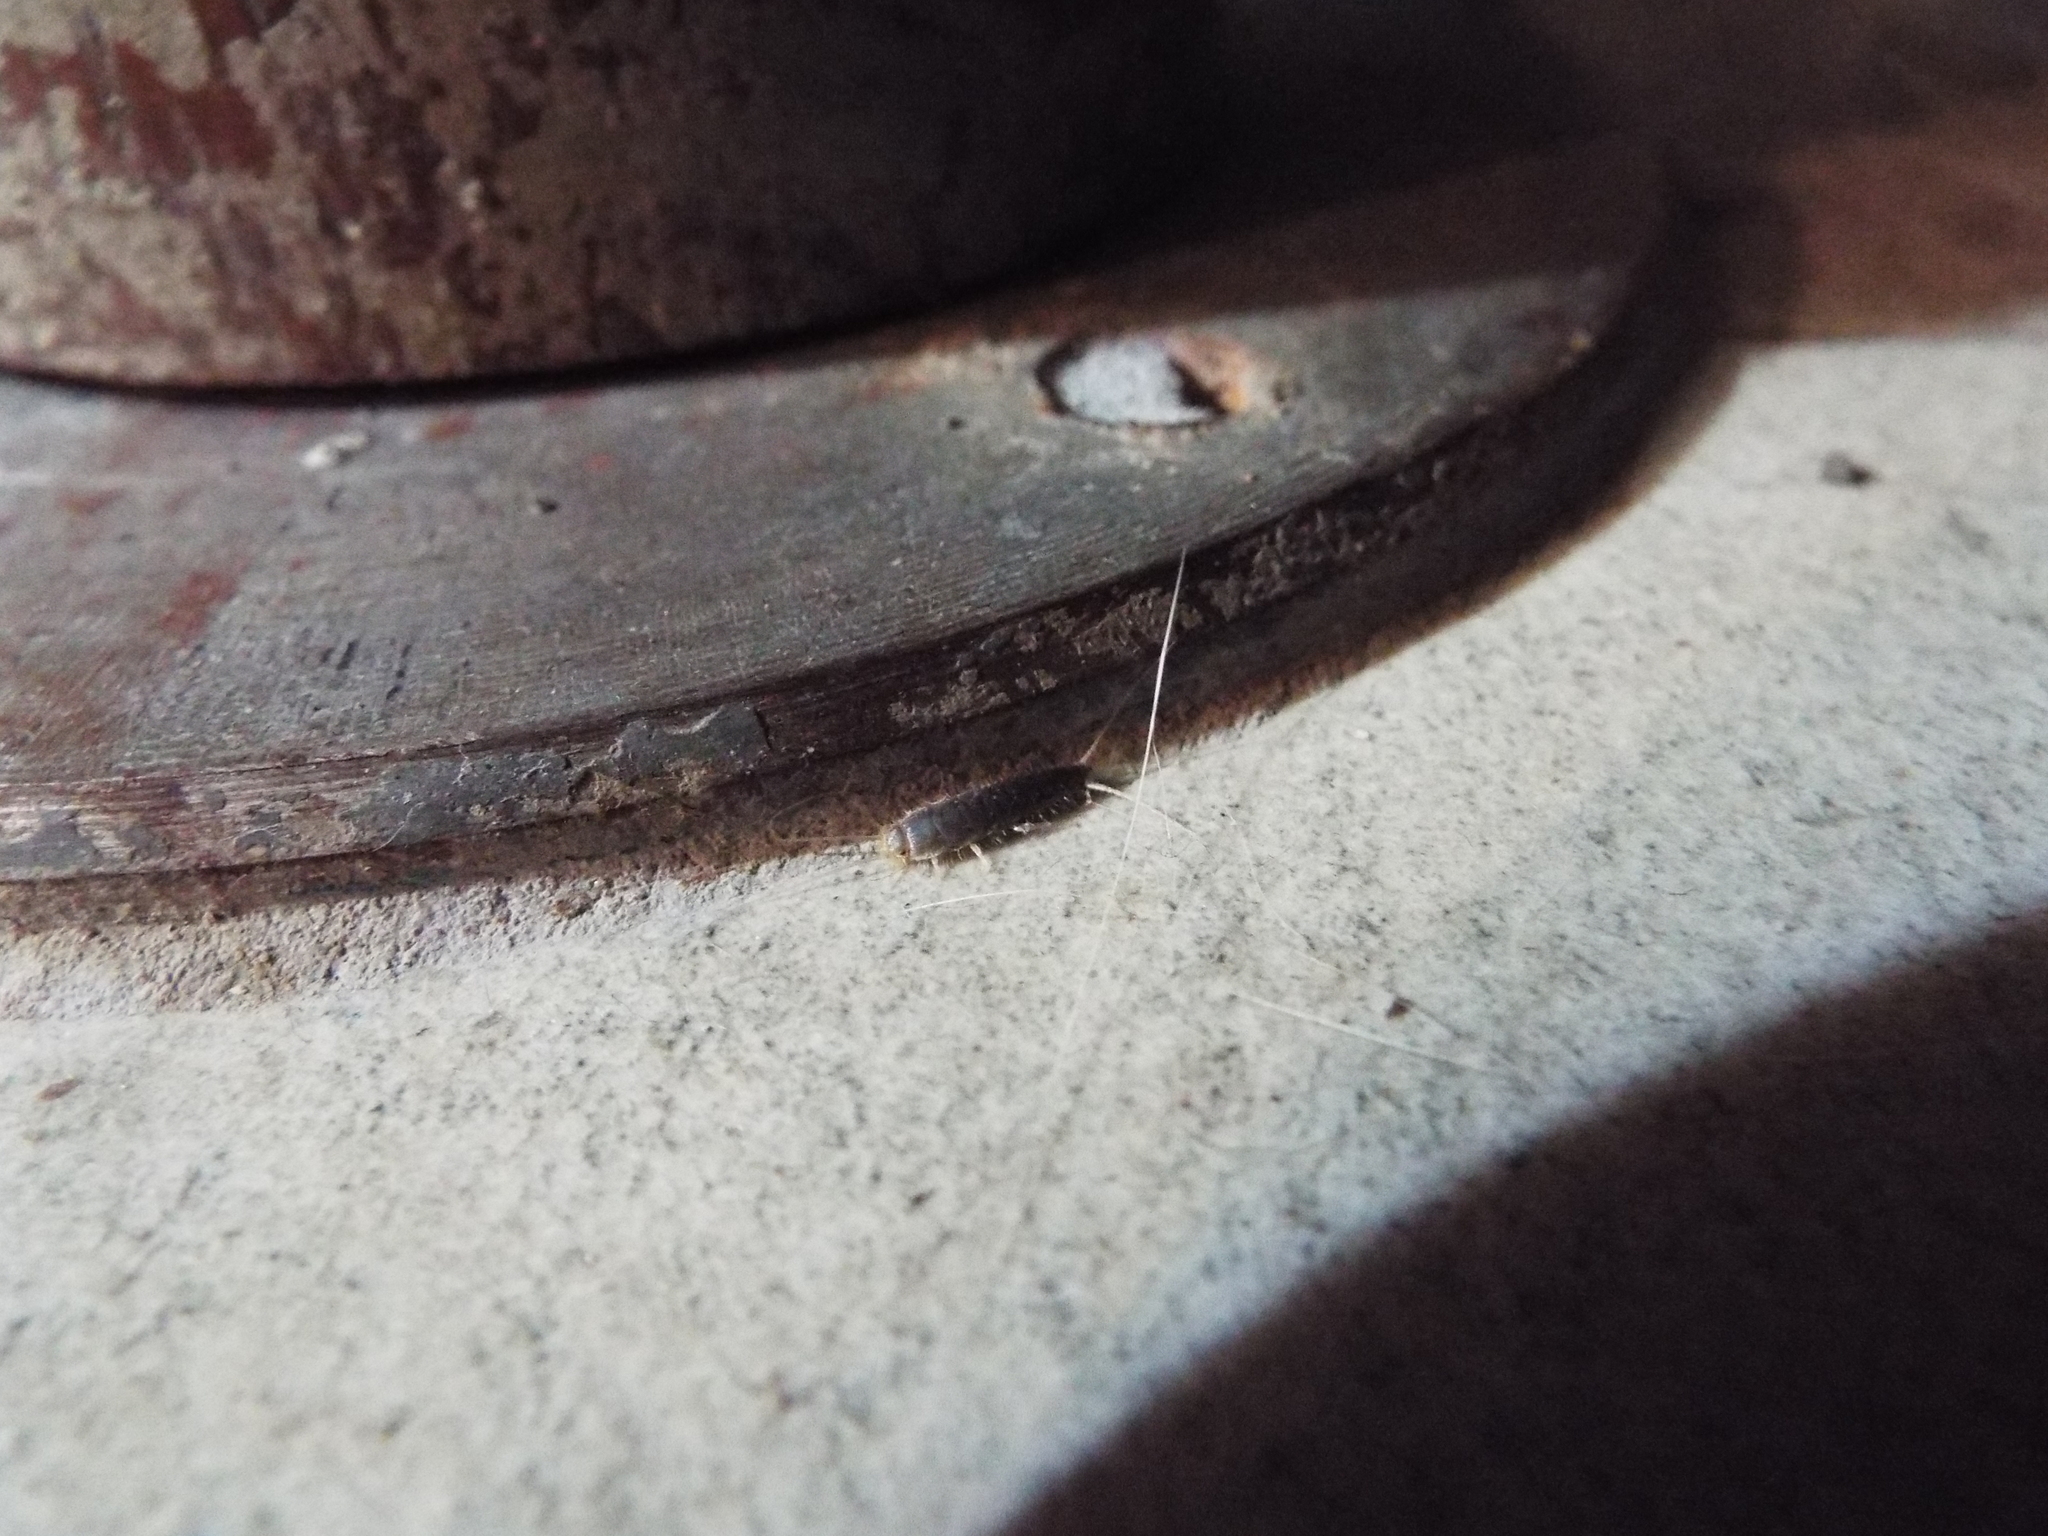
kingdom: Animalia
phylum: Arthropoda
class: Insecta
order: Zygentoma
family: Lepismatidae
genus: Ctenolepisma
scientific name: Ctenolepisma longicaudatum
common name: Silverfish
